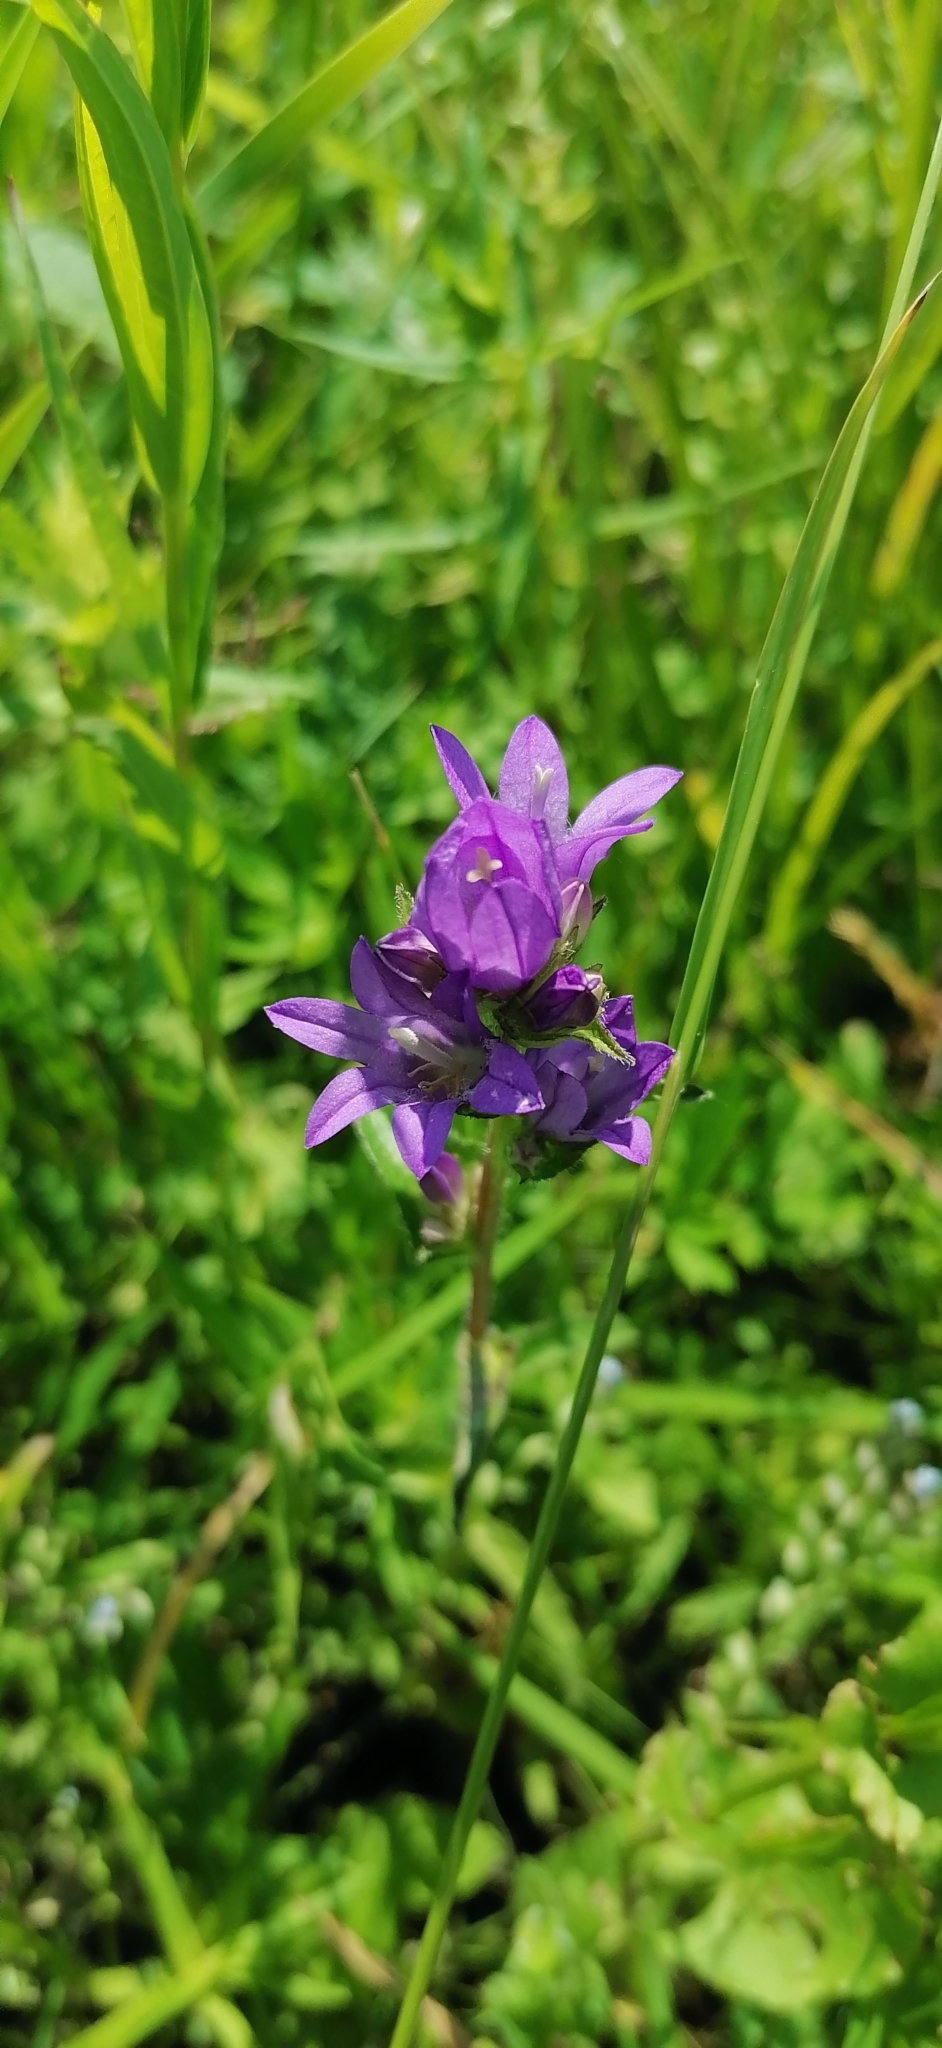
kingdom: Plantae
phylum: Tracheophyta
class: Magnoliopsida
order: Asterales
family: Campanulaceae
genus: Campanula
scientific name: Campanula glomerata
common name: Clustered bellflower
